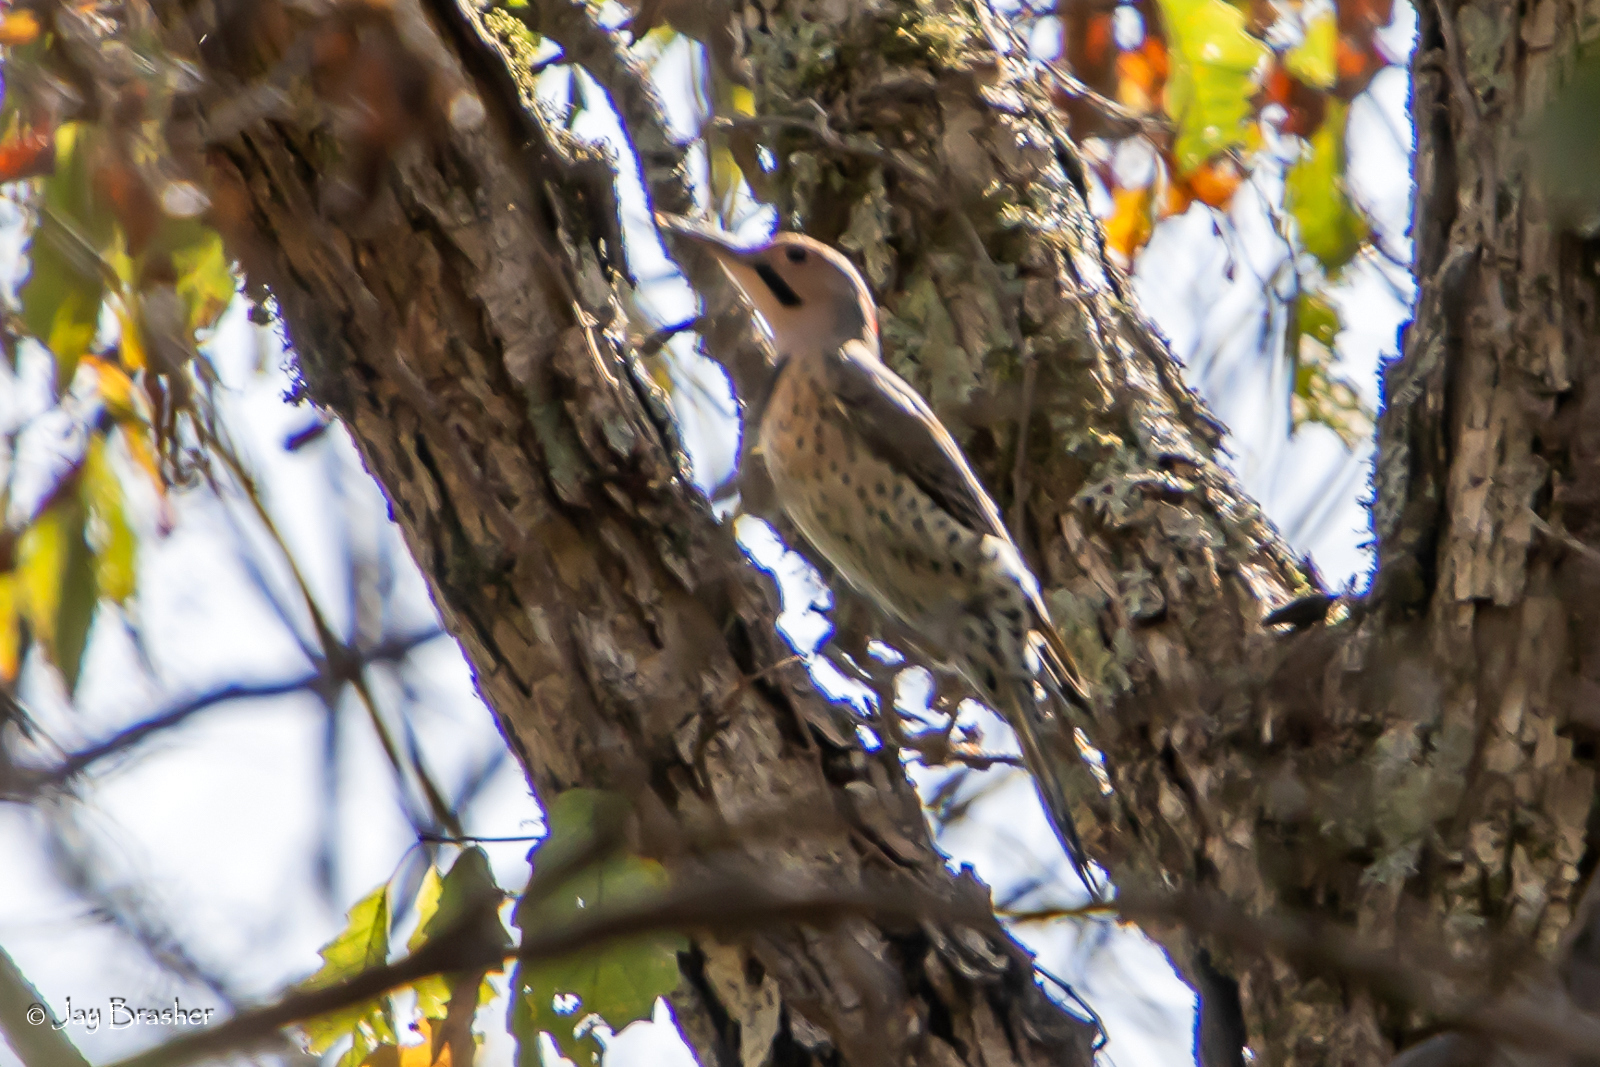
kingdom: Animalia
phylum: Chordata
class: Aves
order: Piciformes
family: Picidae
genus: Colaptes
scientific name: Colaptes auratus
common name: Northern flicker
